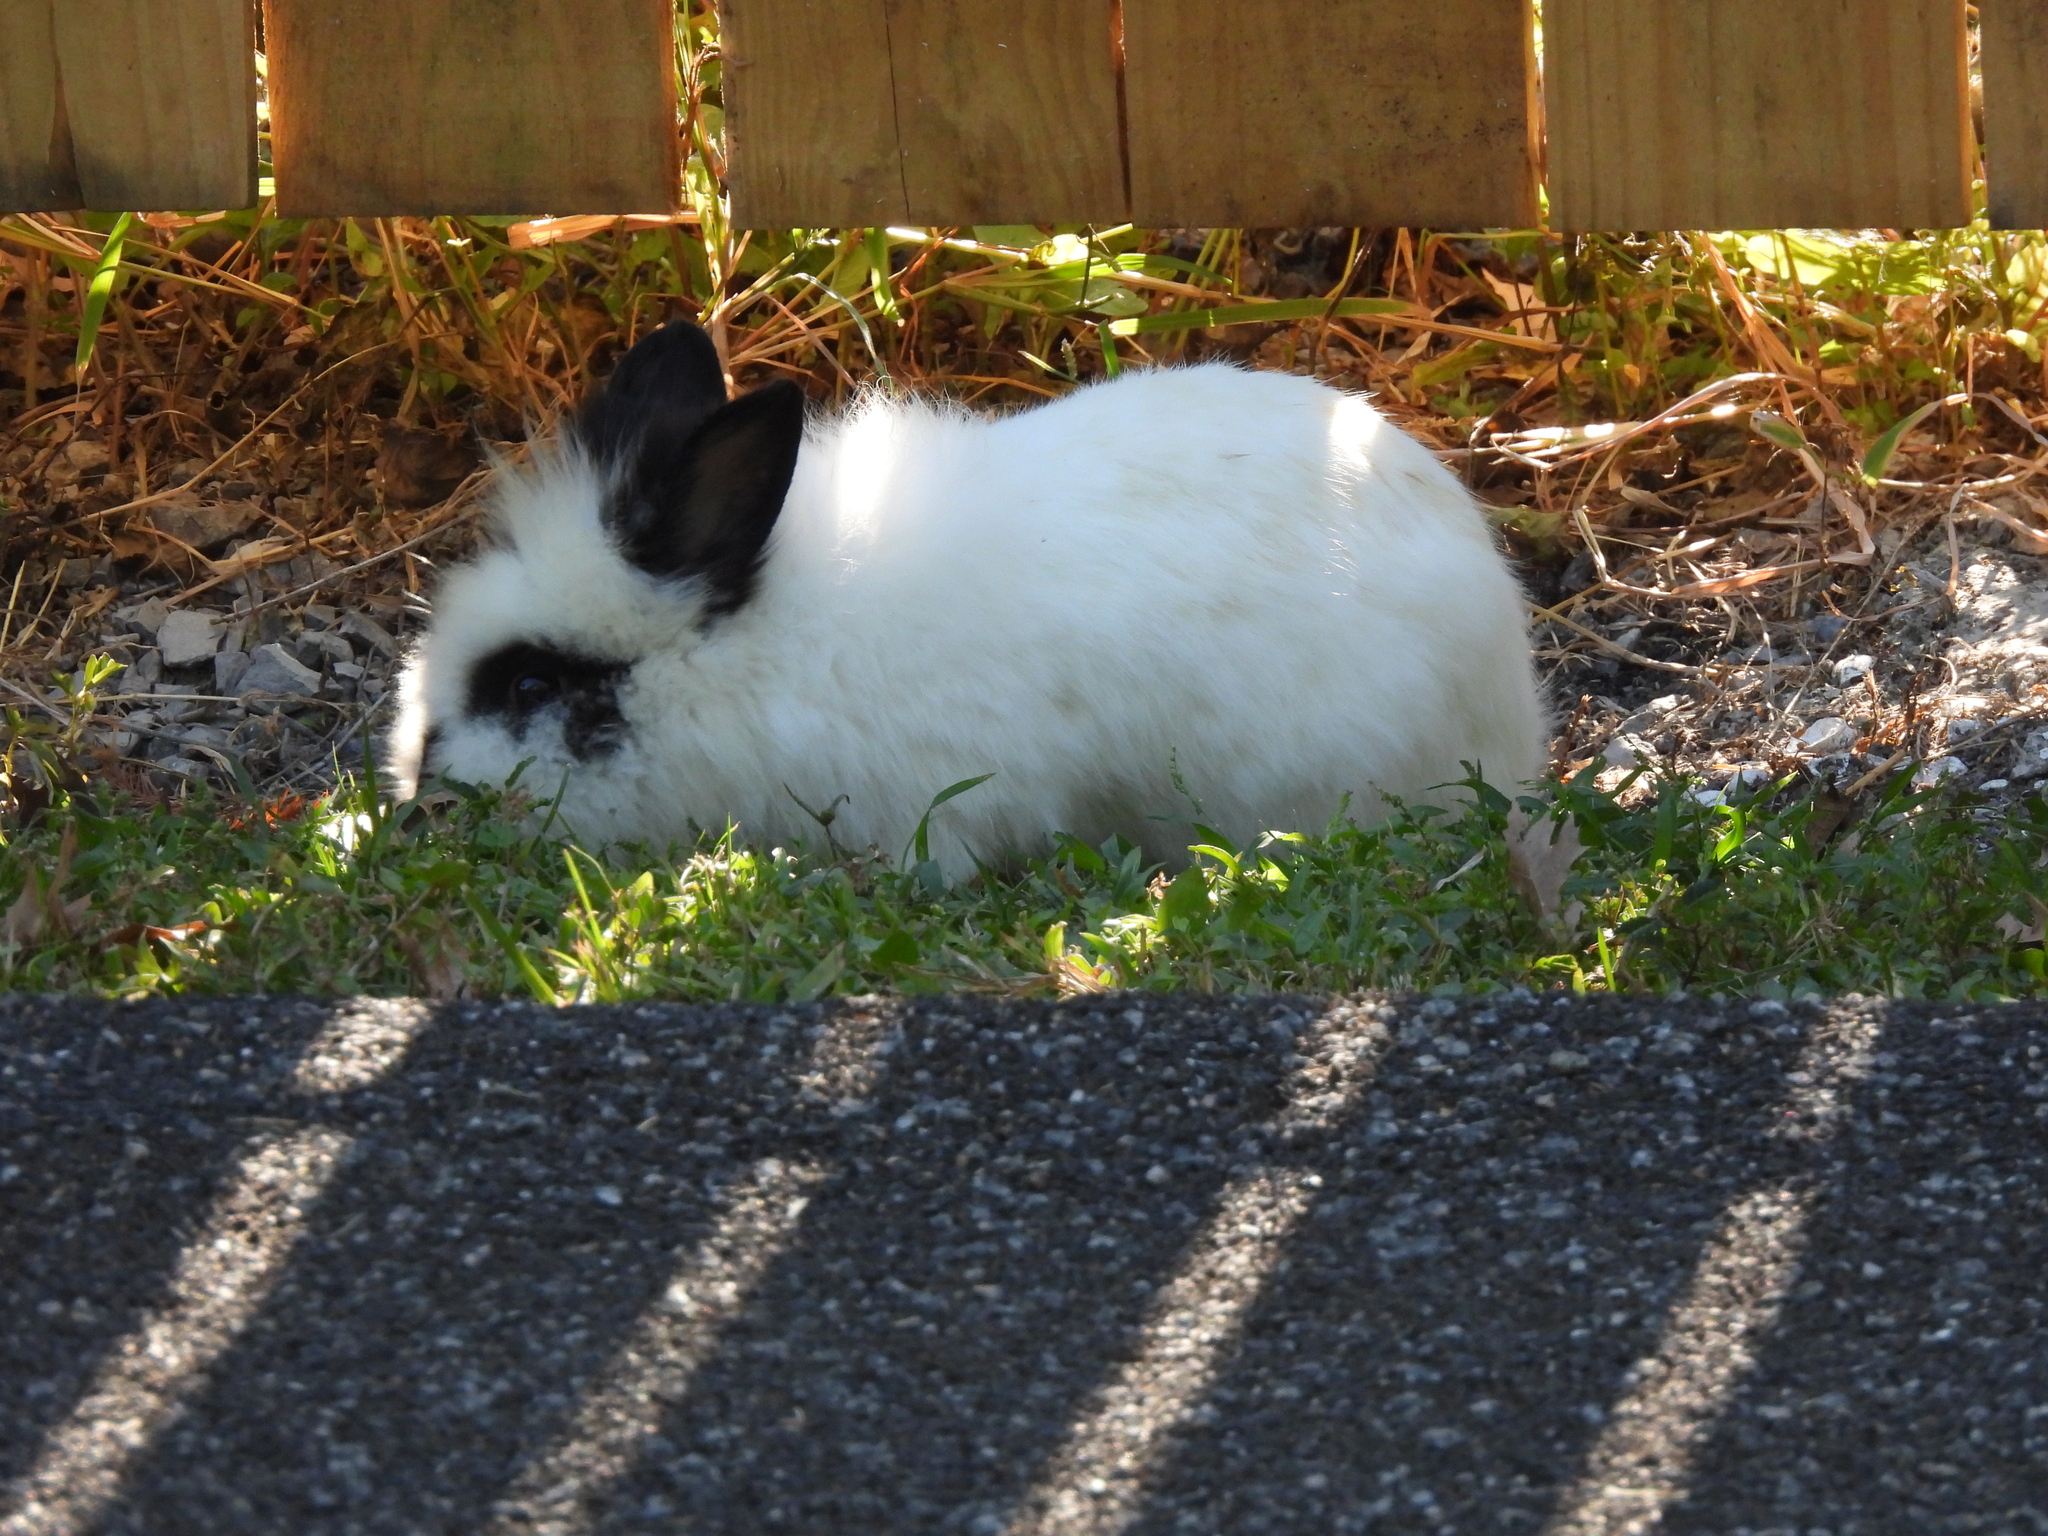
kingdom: Animalia
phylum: Chordata
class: Mammalia
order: Lagomorpha
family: Leporidae
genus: Oryctolagus
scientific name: Oryctolagus cuniculus
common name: European rabbit
